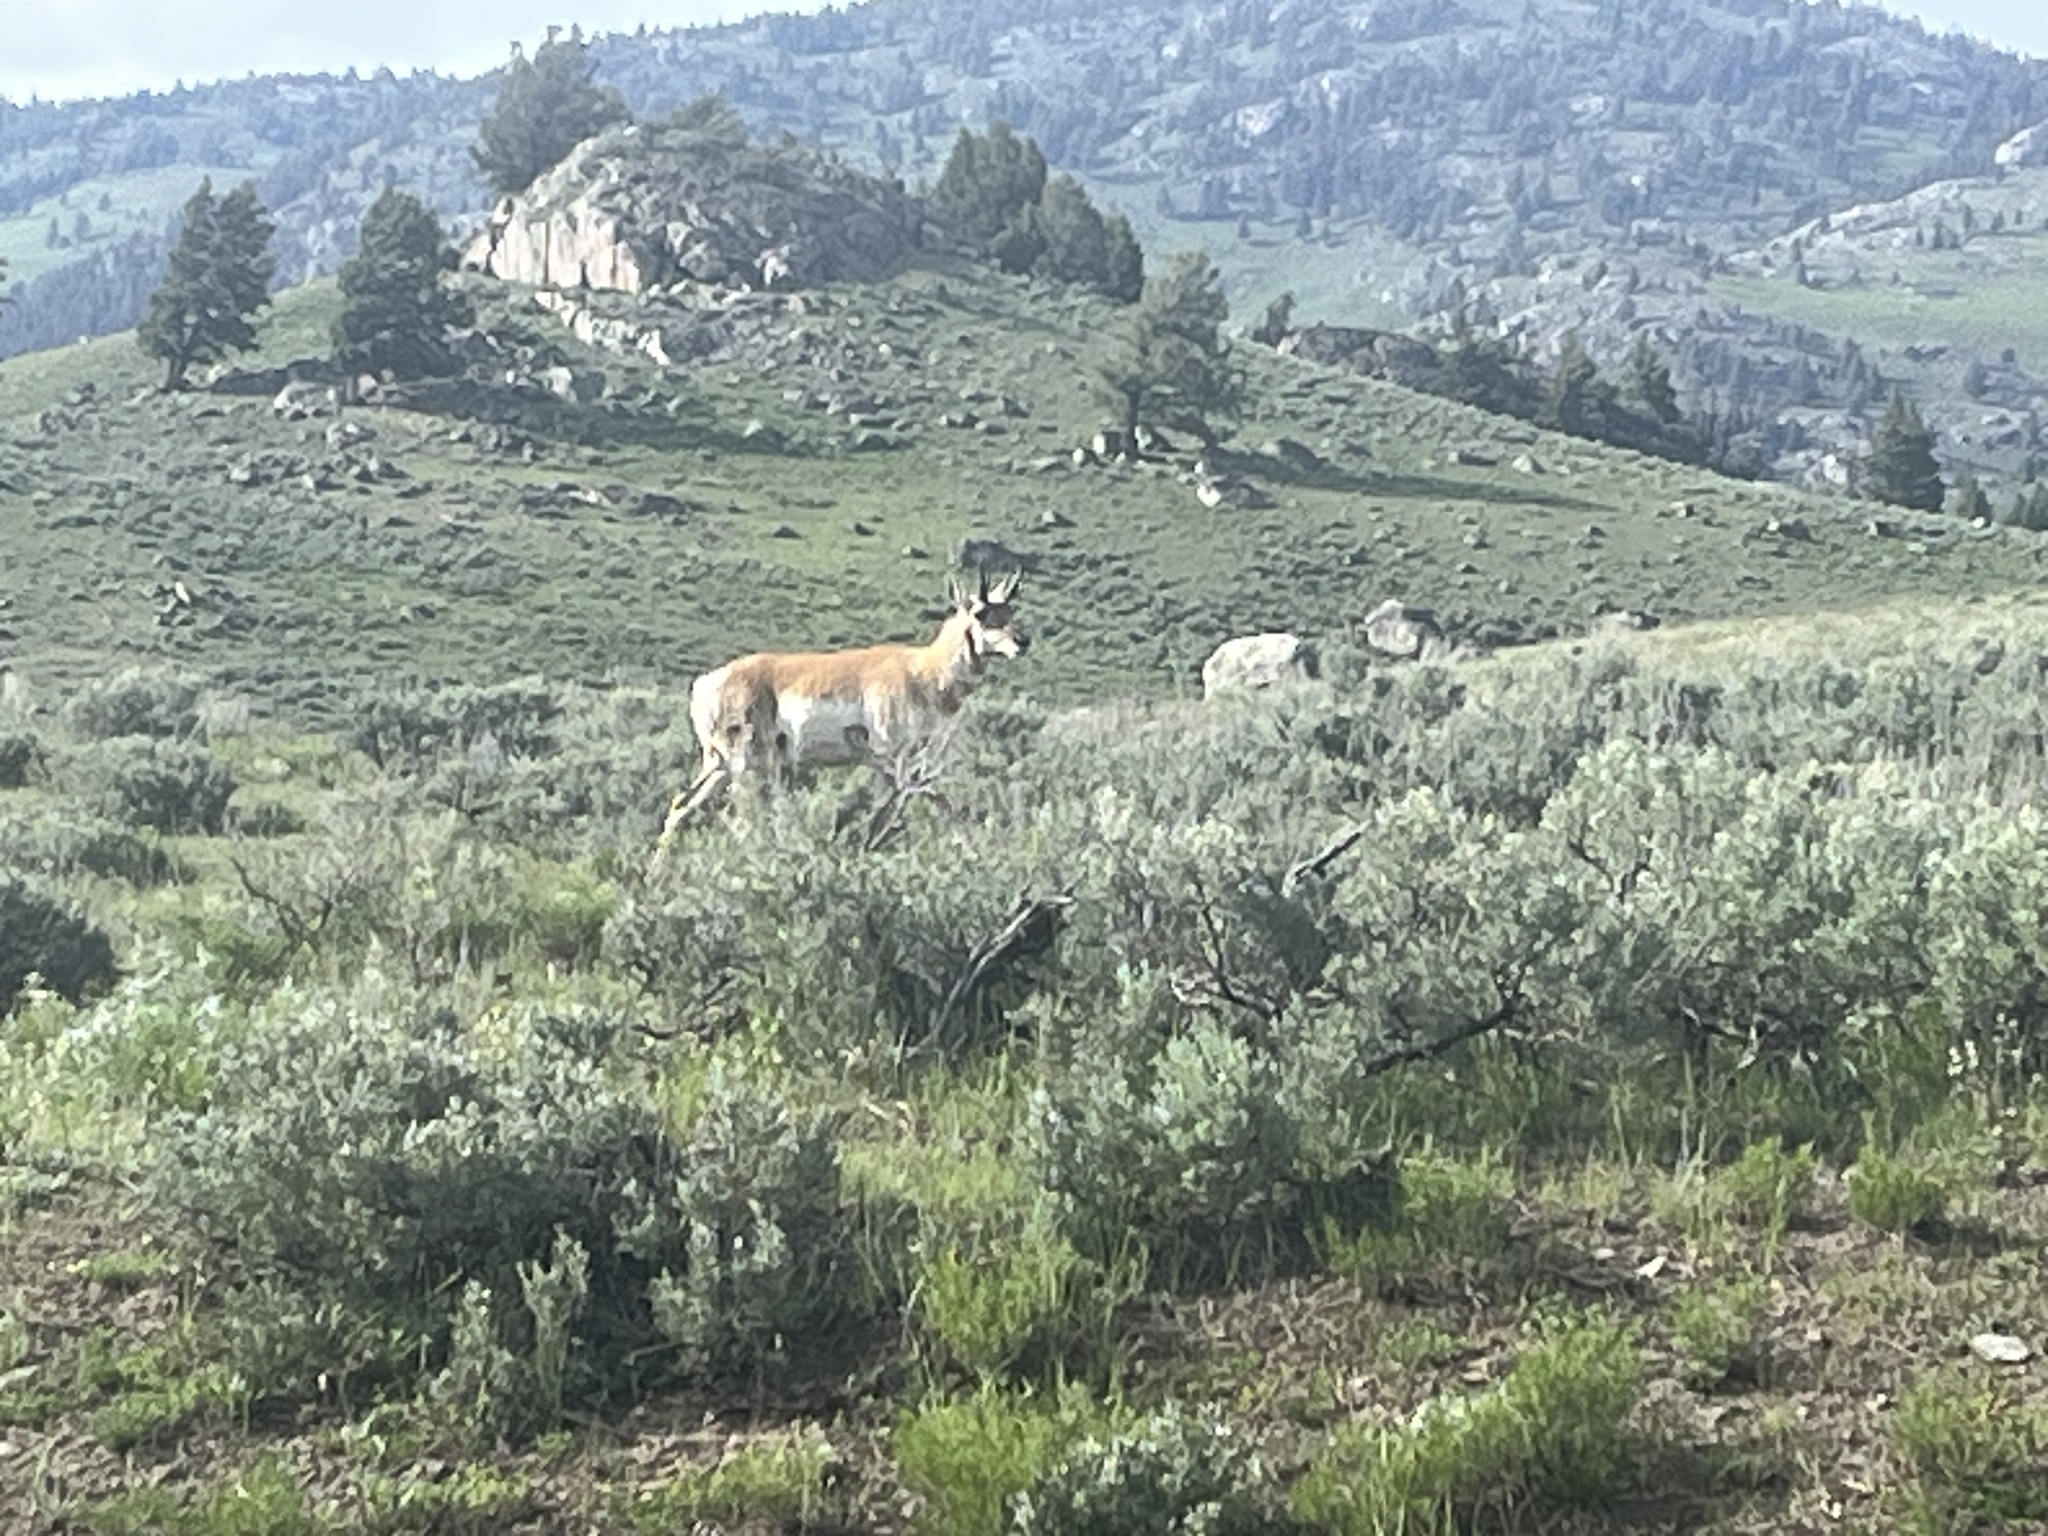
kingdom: Animalia
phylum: Chordata
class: Mammalia
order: Artiodactyla
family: Antilocapridae
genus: Antilocapra
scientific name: Antilocapra americana
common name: Pronghorn
